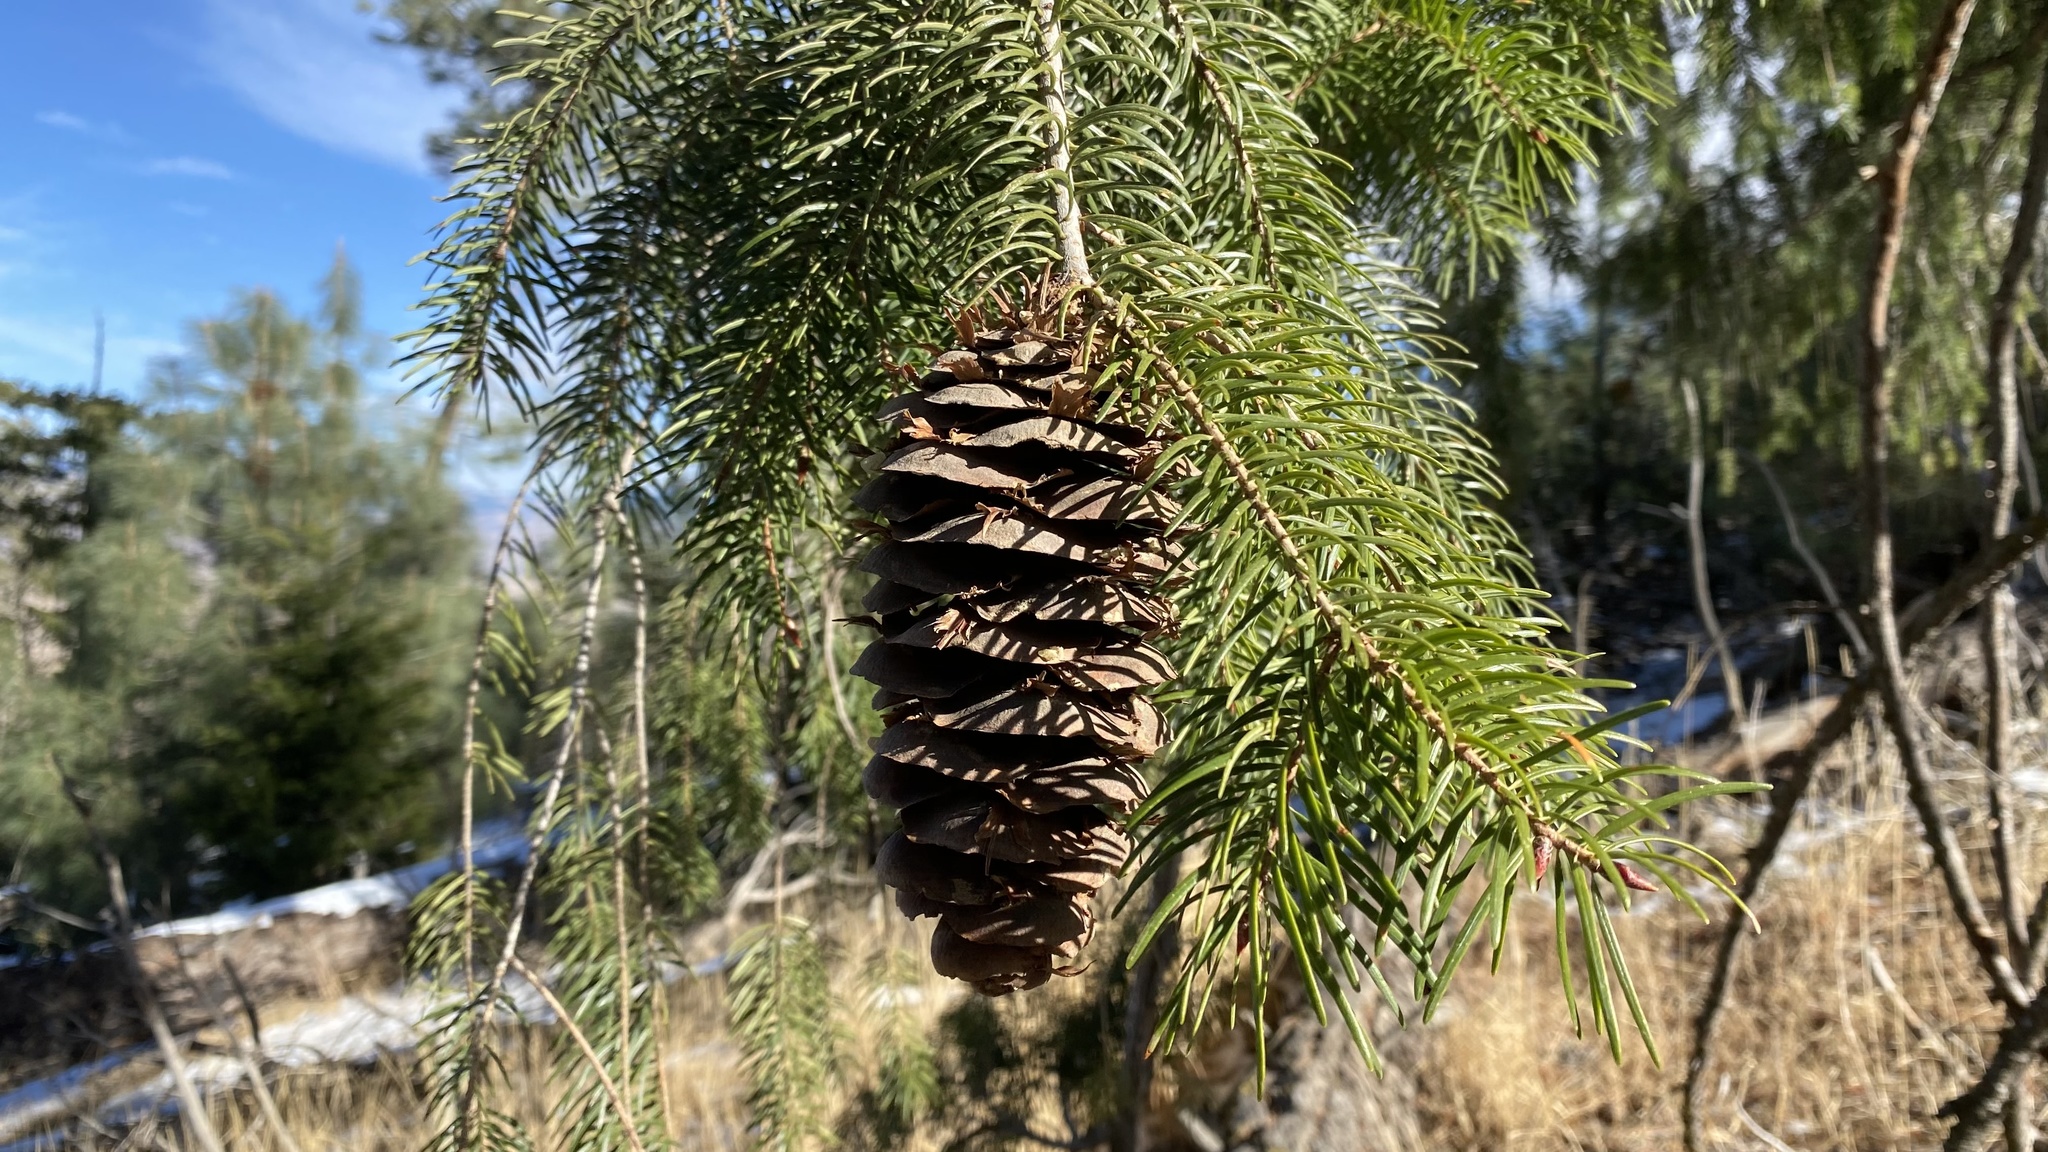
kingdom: Plantae
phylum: Tracheophyta
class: Pinopsida
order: Pinales
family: Pinaceae
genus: Pseudotsuga
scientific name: Pseudotsuga macrocarpa
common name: Big-cone douglas-fir
